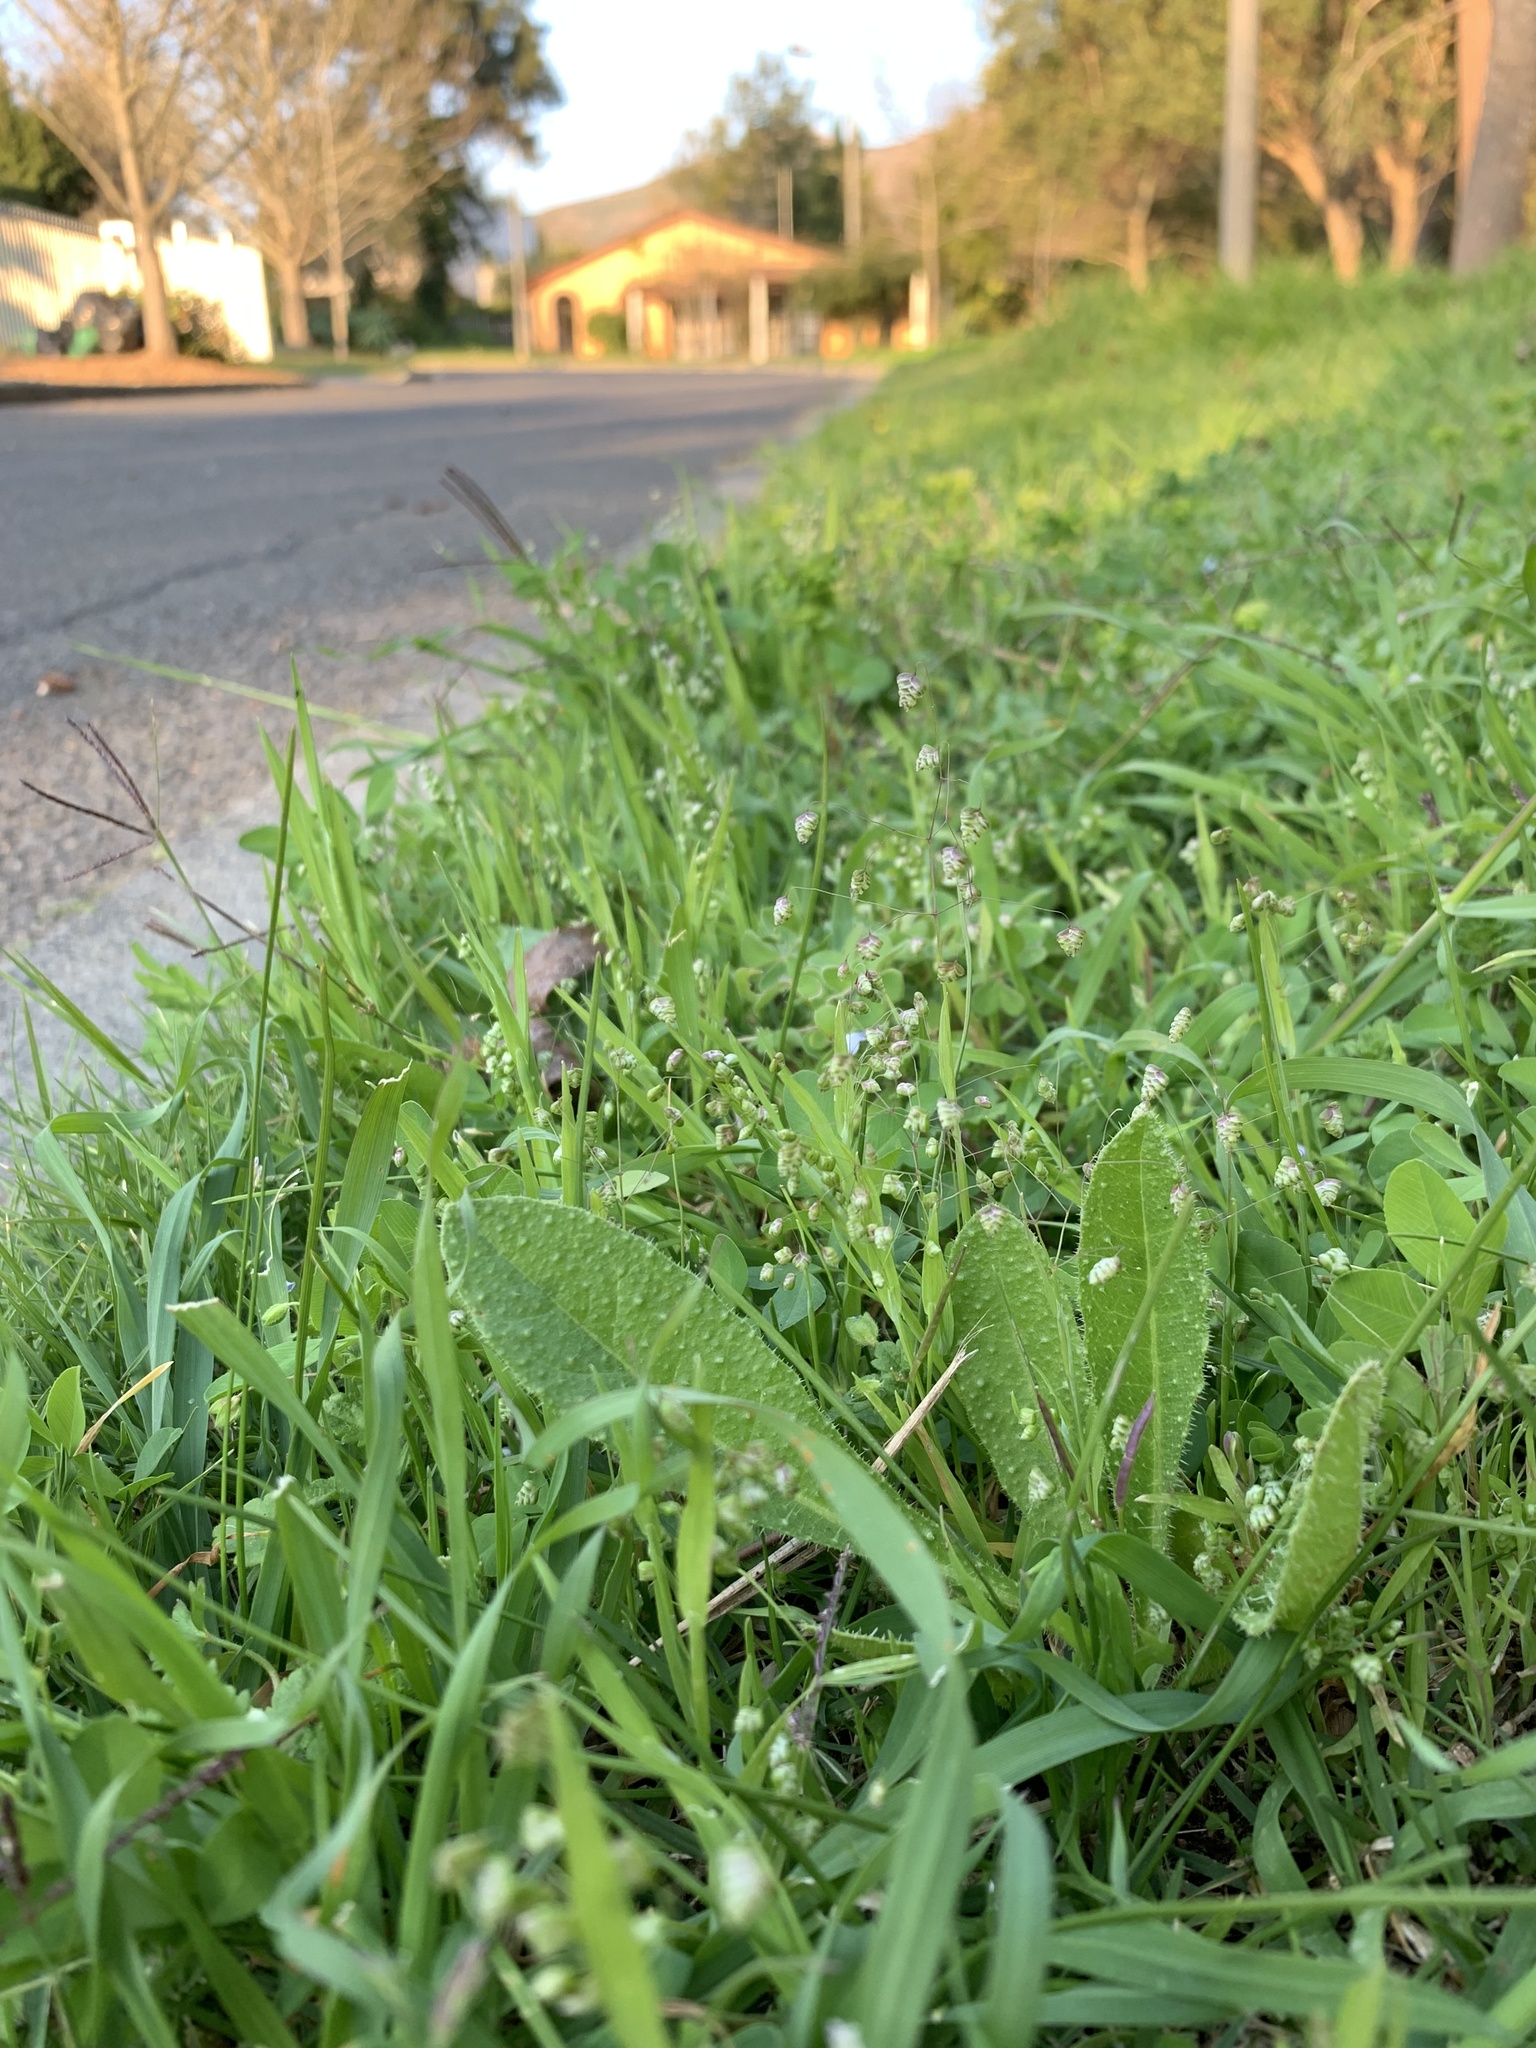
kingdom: Plantae
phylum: Tracheophyta
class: Liliopsida
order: Poales
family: Poaceae
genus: Briza
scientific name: Briza minor
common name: Lesser quaking-grass
